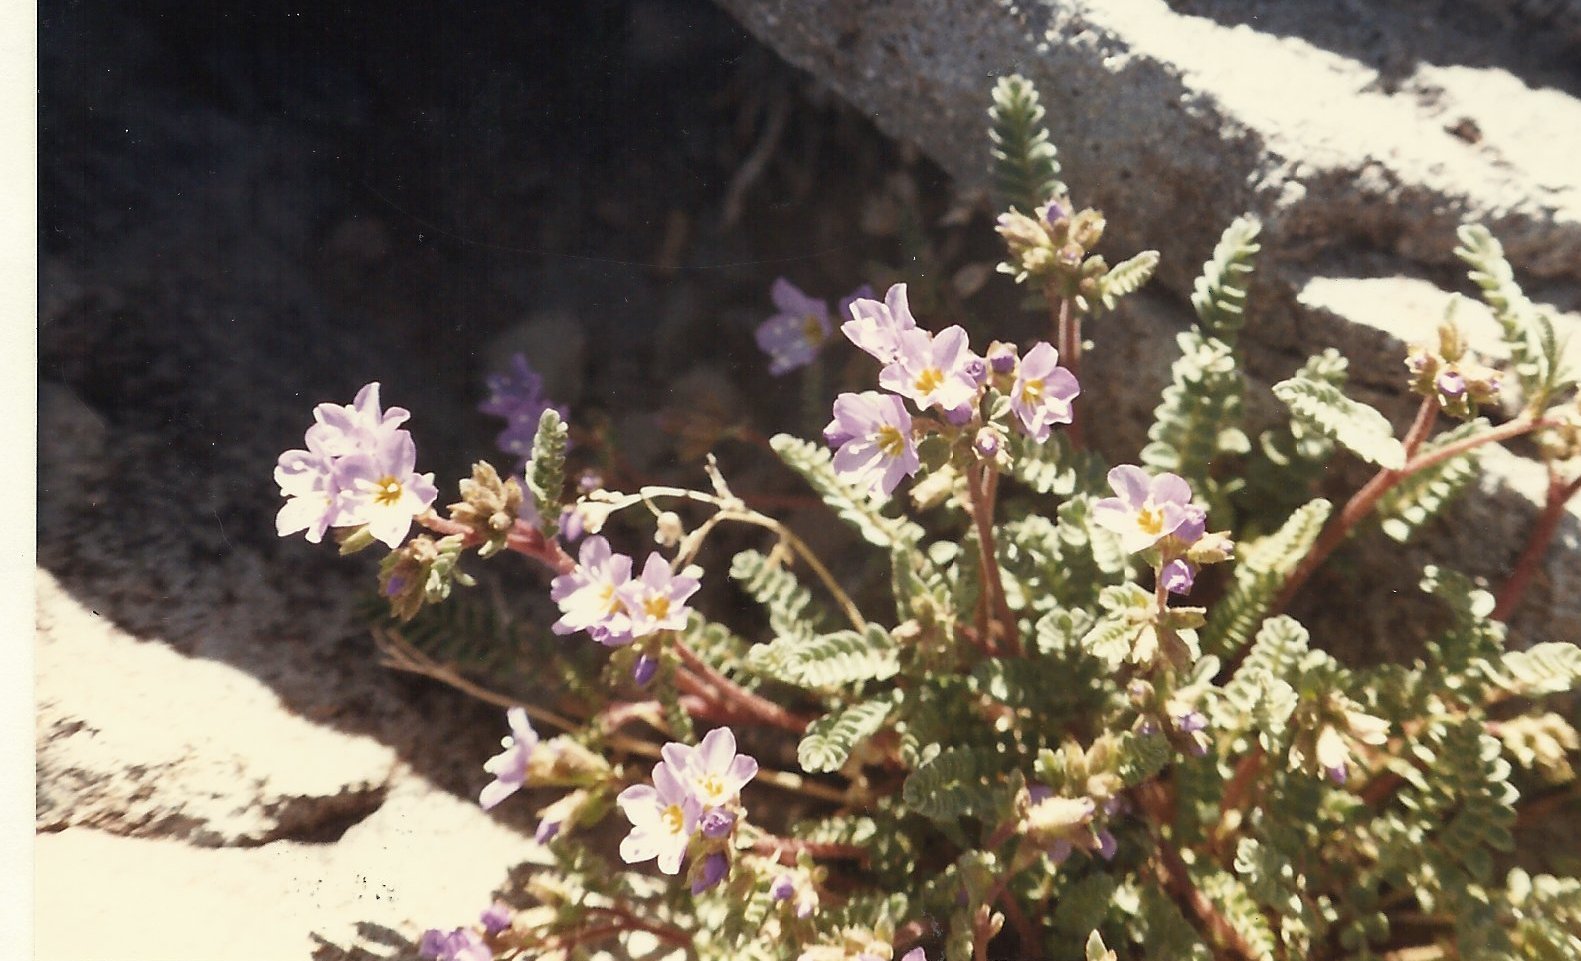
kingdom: Plantae
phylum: Tracheophyta
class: Magnoliopsida
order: Ericales
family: Polemoniaceae
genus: Polemonium
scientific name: Polemonium pulcherrimum
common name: Short jacob's-ladder
